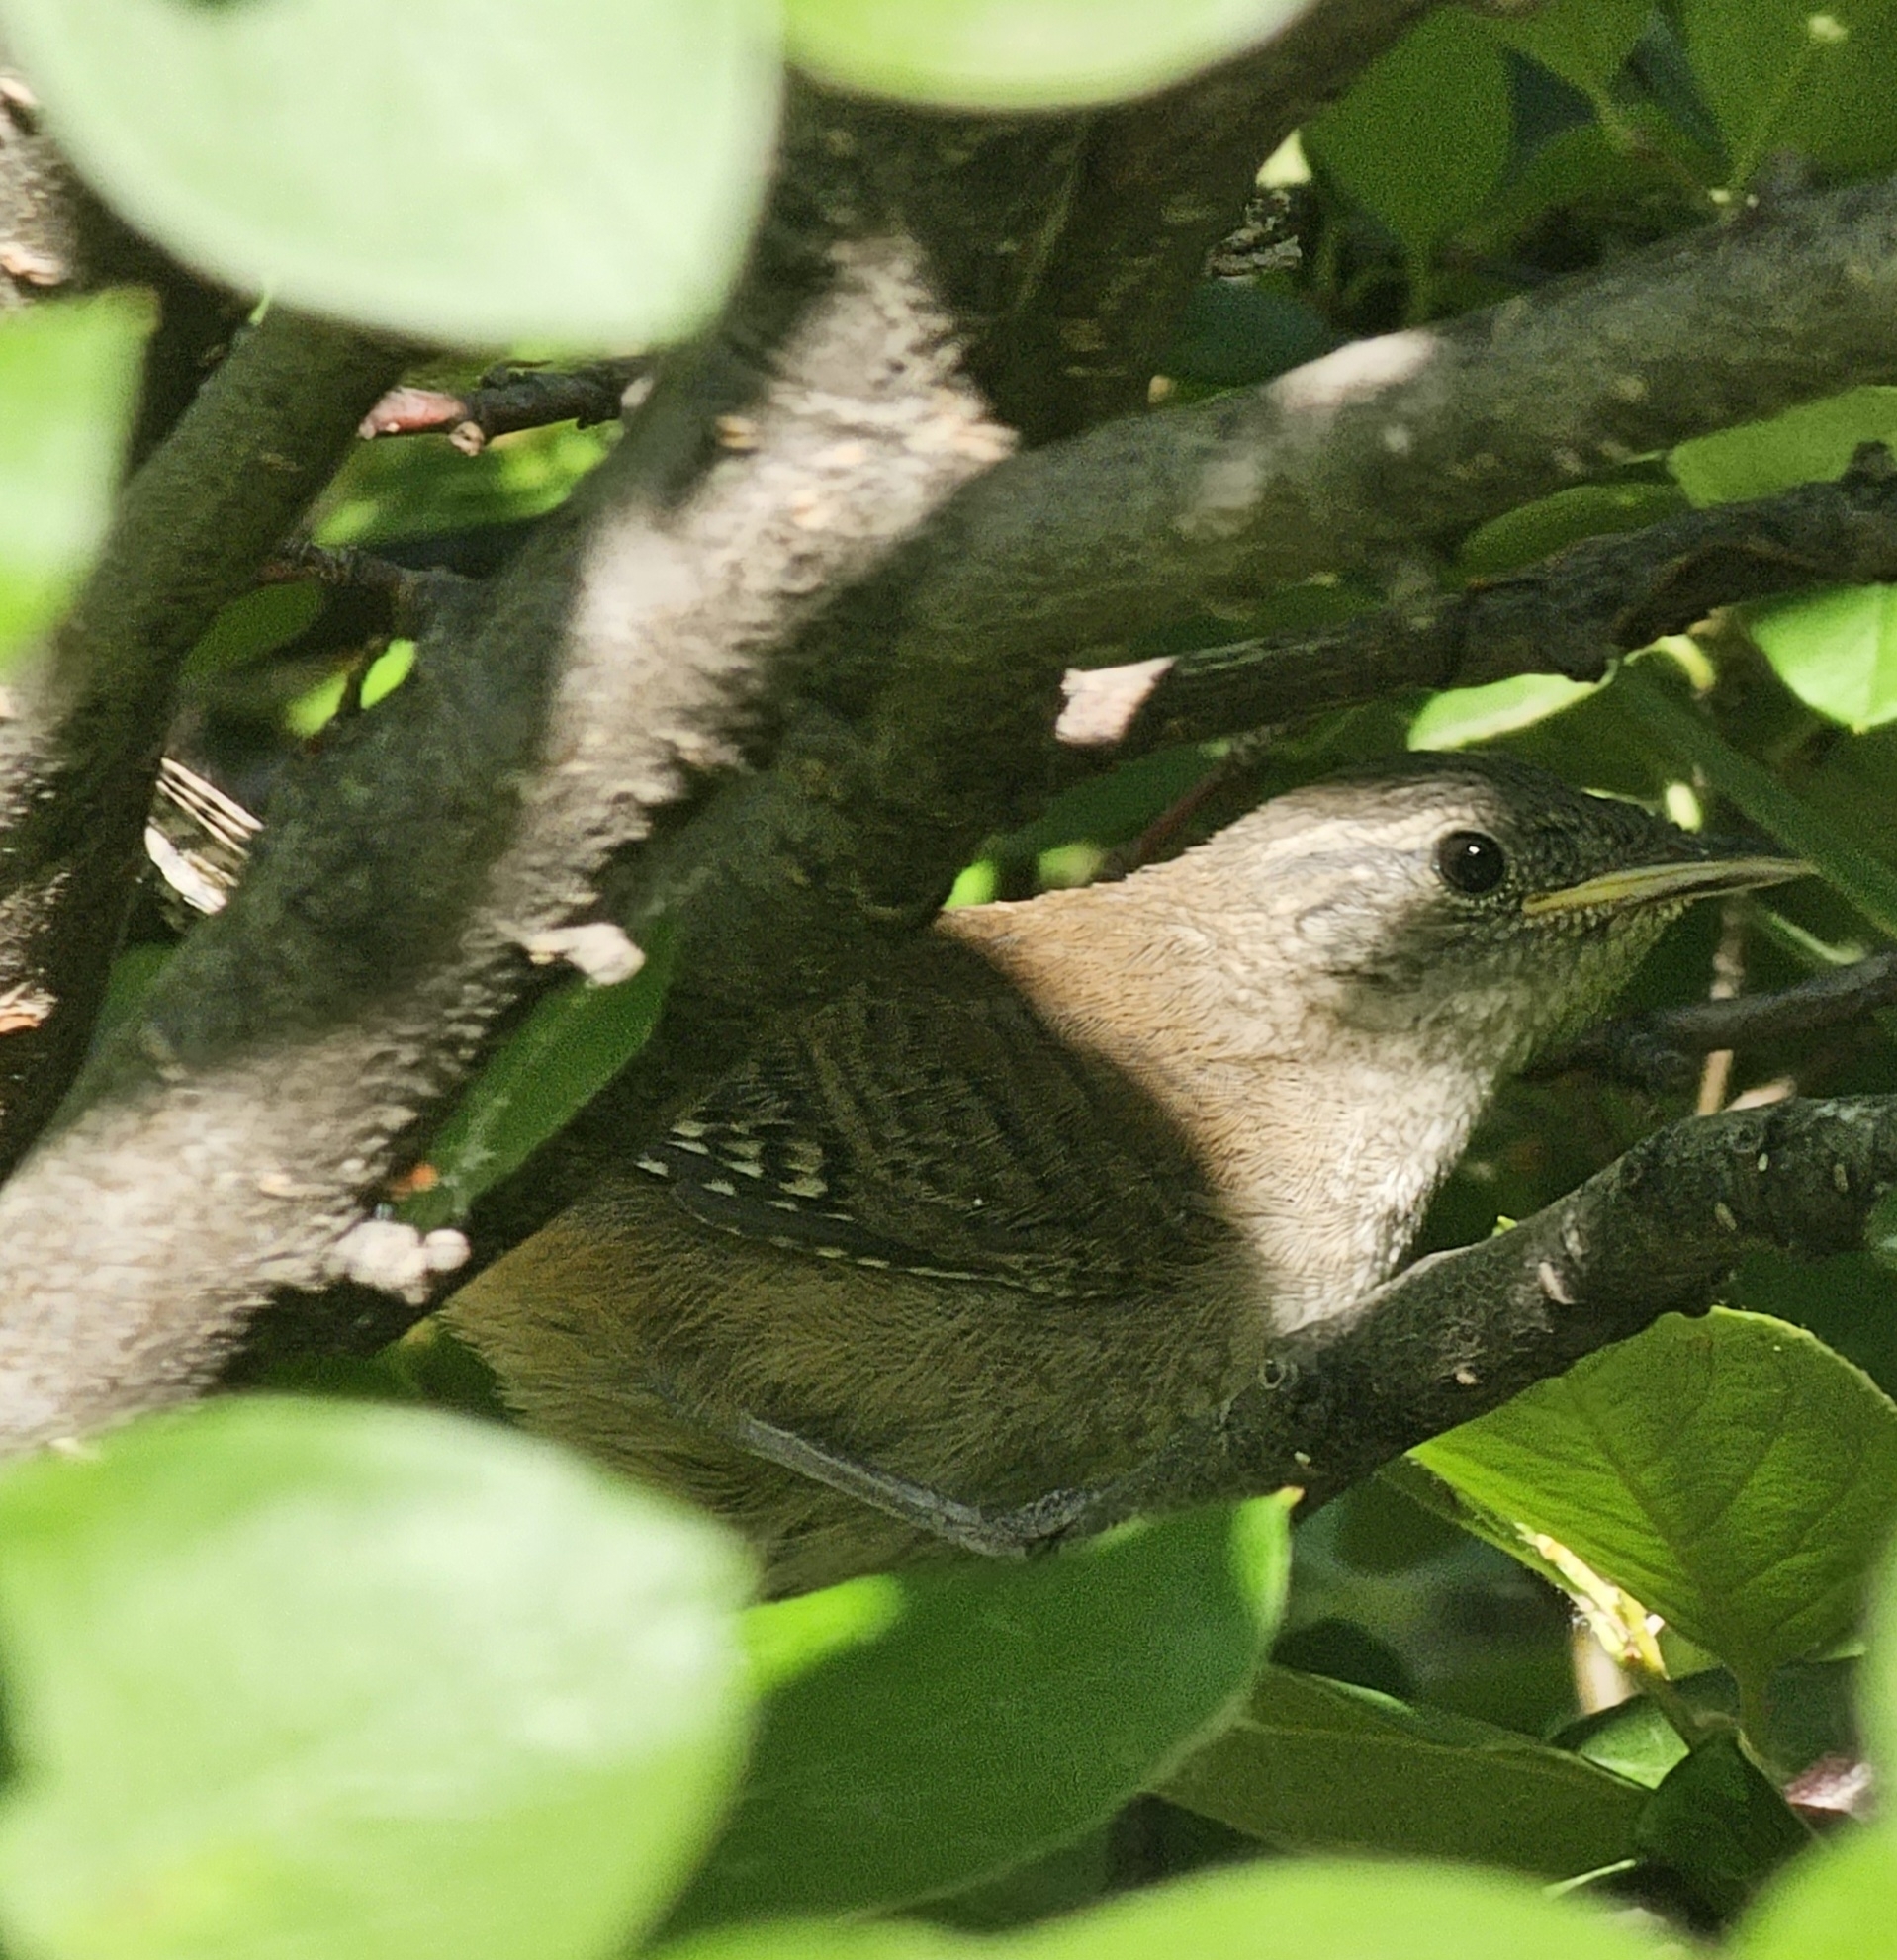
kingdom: Animalia
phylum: Chordata
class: Aves
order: Passeriformes
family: Troglodytidae
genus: Troglodytes
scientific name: Troglodytes aedon
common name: House wren
